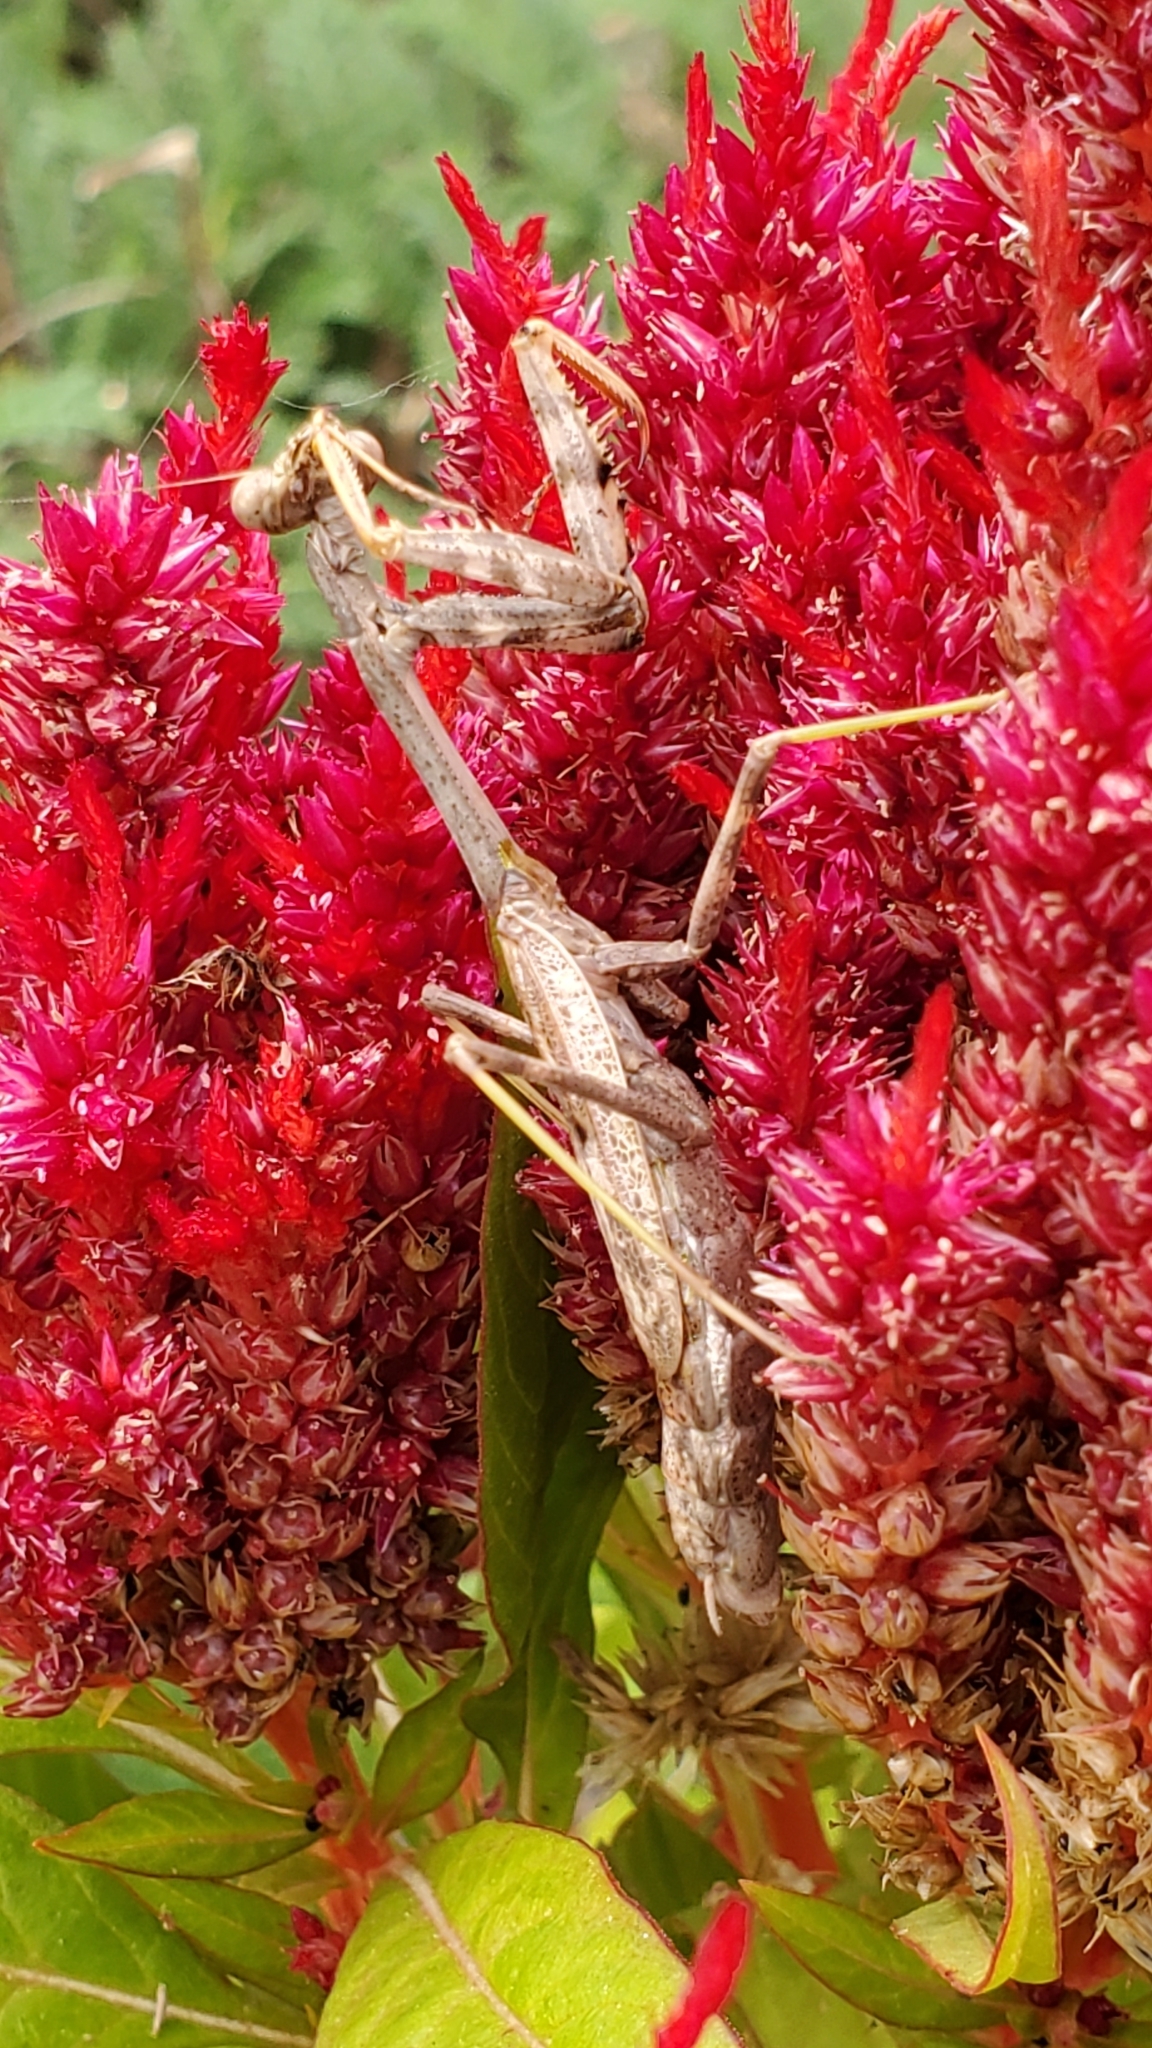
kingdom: Animalia
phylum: Arthropoda
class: Insecta
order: Mantodea
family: Mantidae
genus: Stagmomantis
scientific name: Stagmomantis carolina
